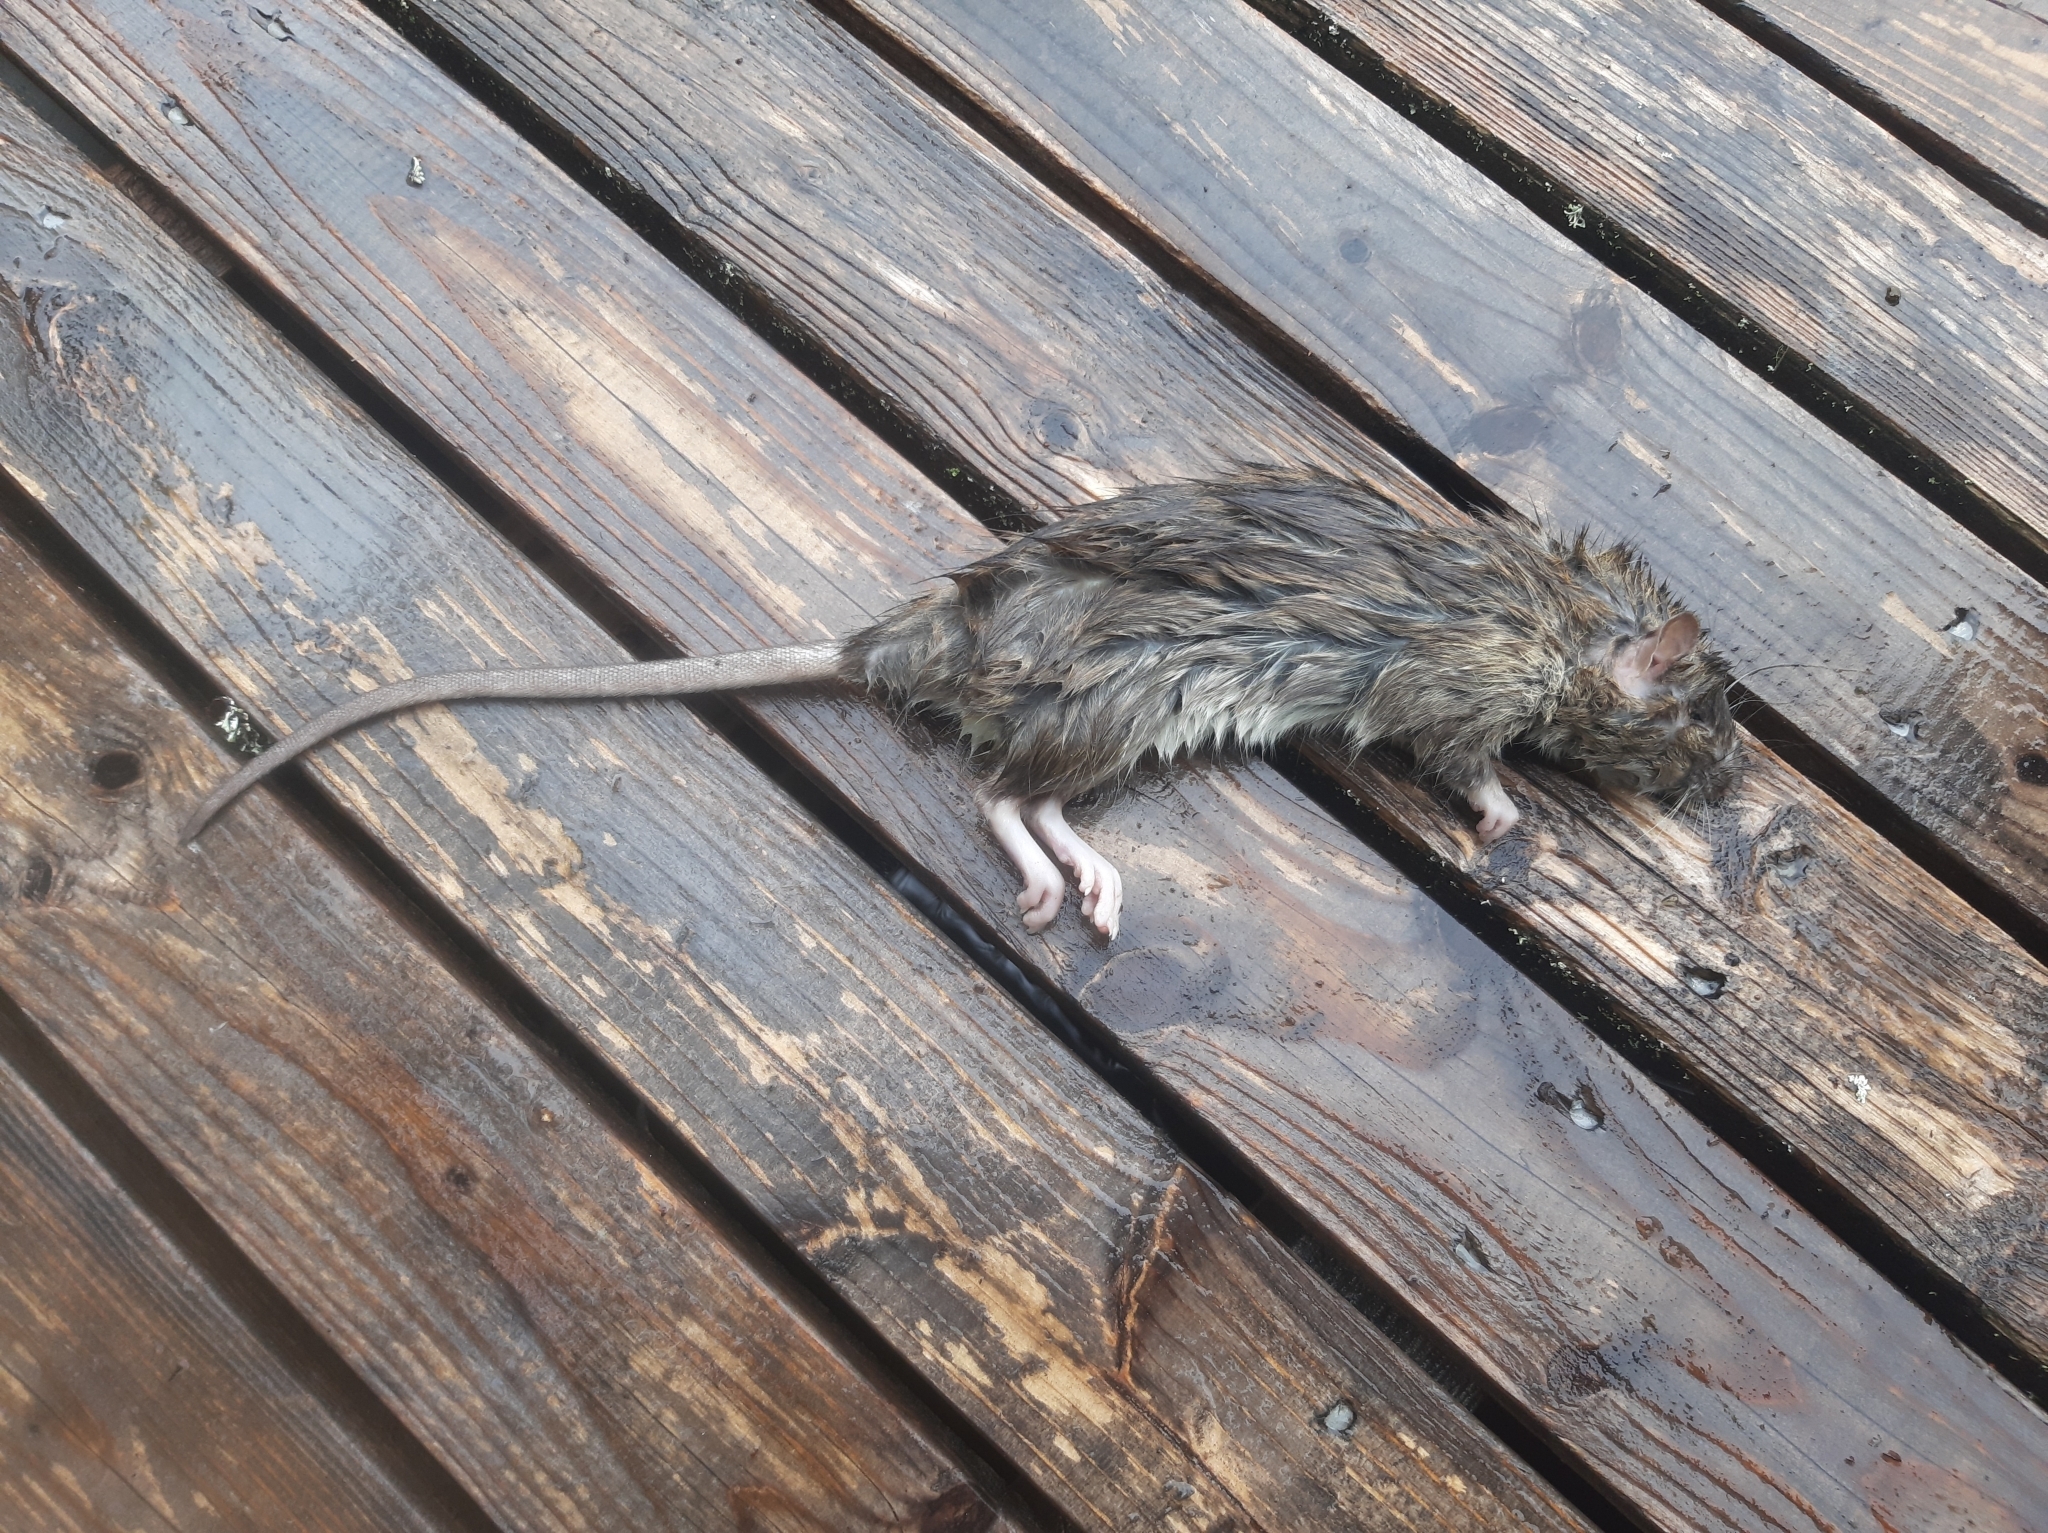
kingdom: Animalia
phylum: Chordata
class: Mammalia
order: Rodentia
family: Muridae
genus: Rattus
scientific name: Rattus norvegicus
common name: Brown rat
